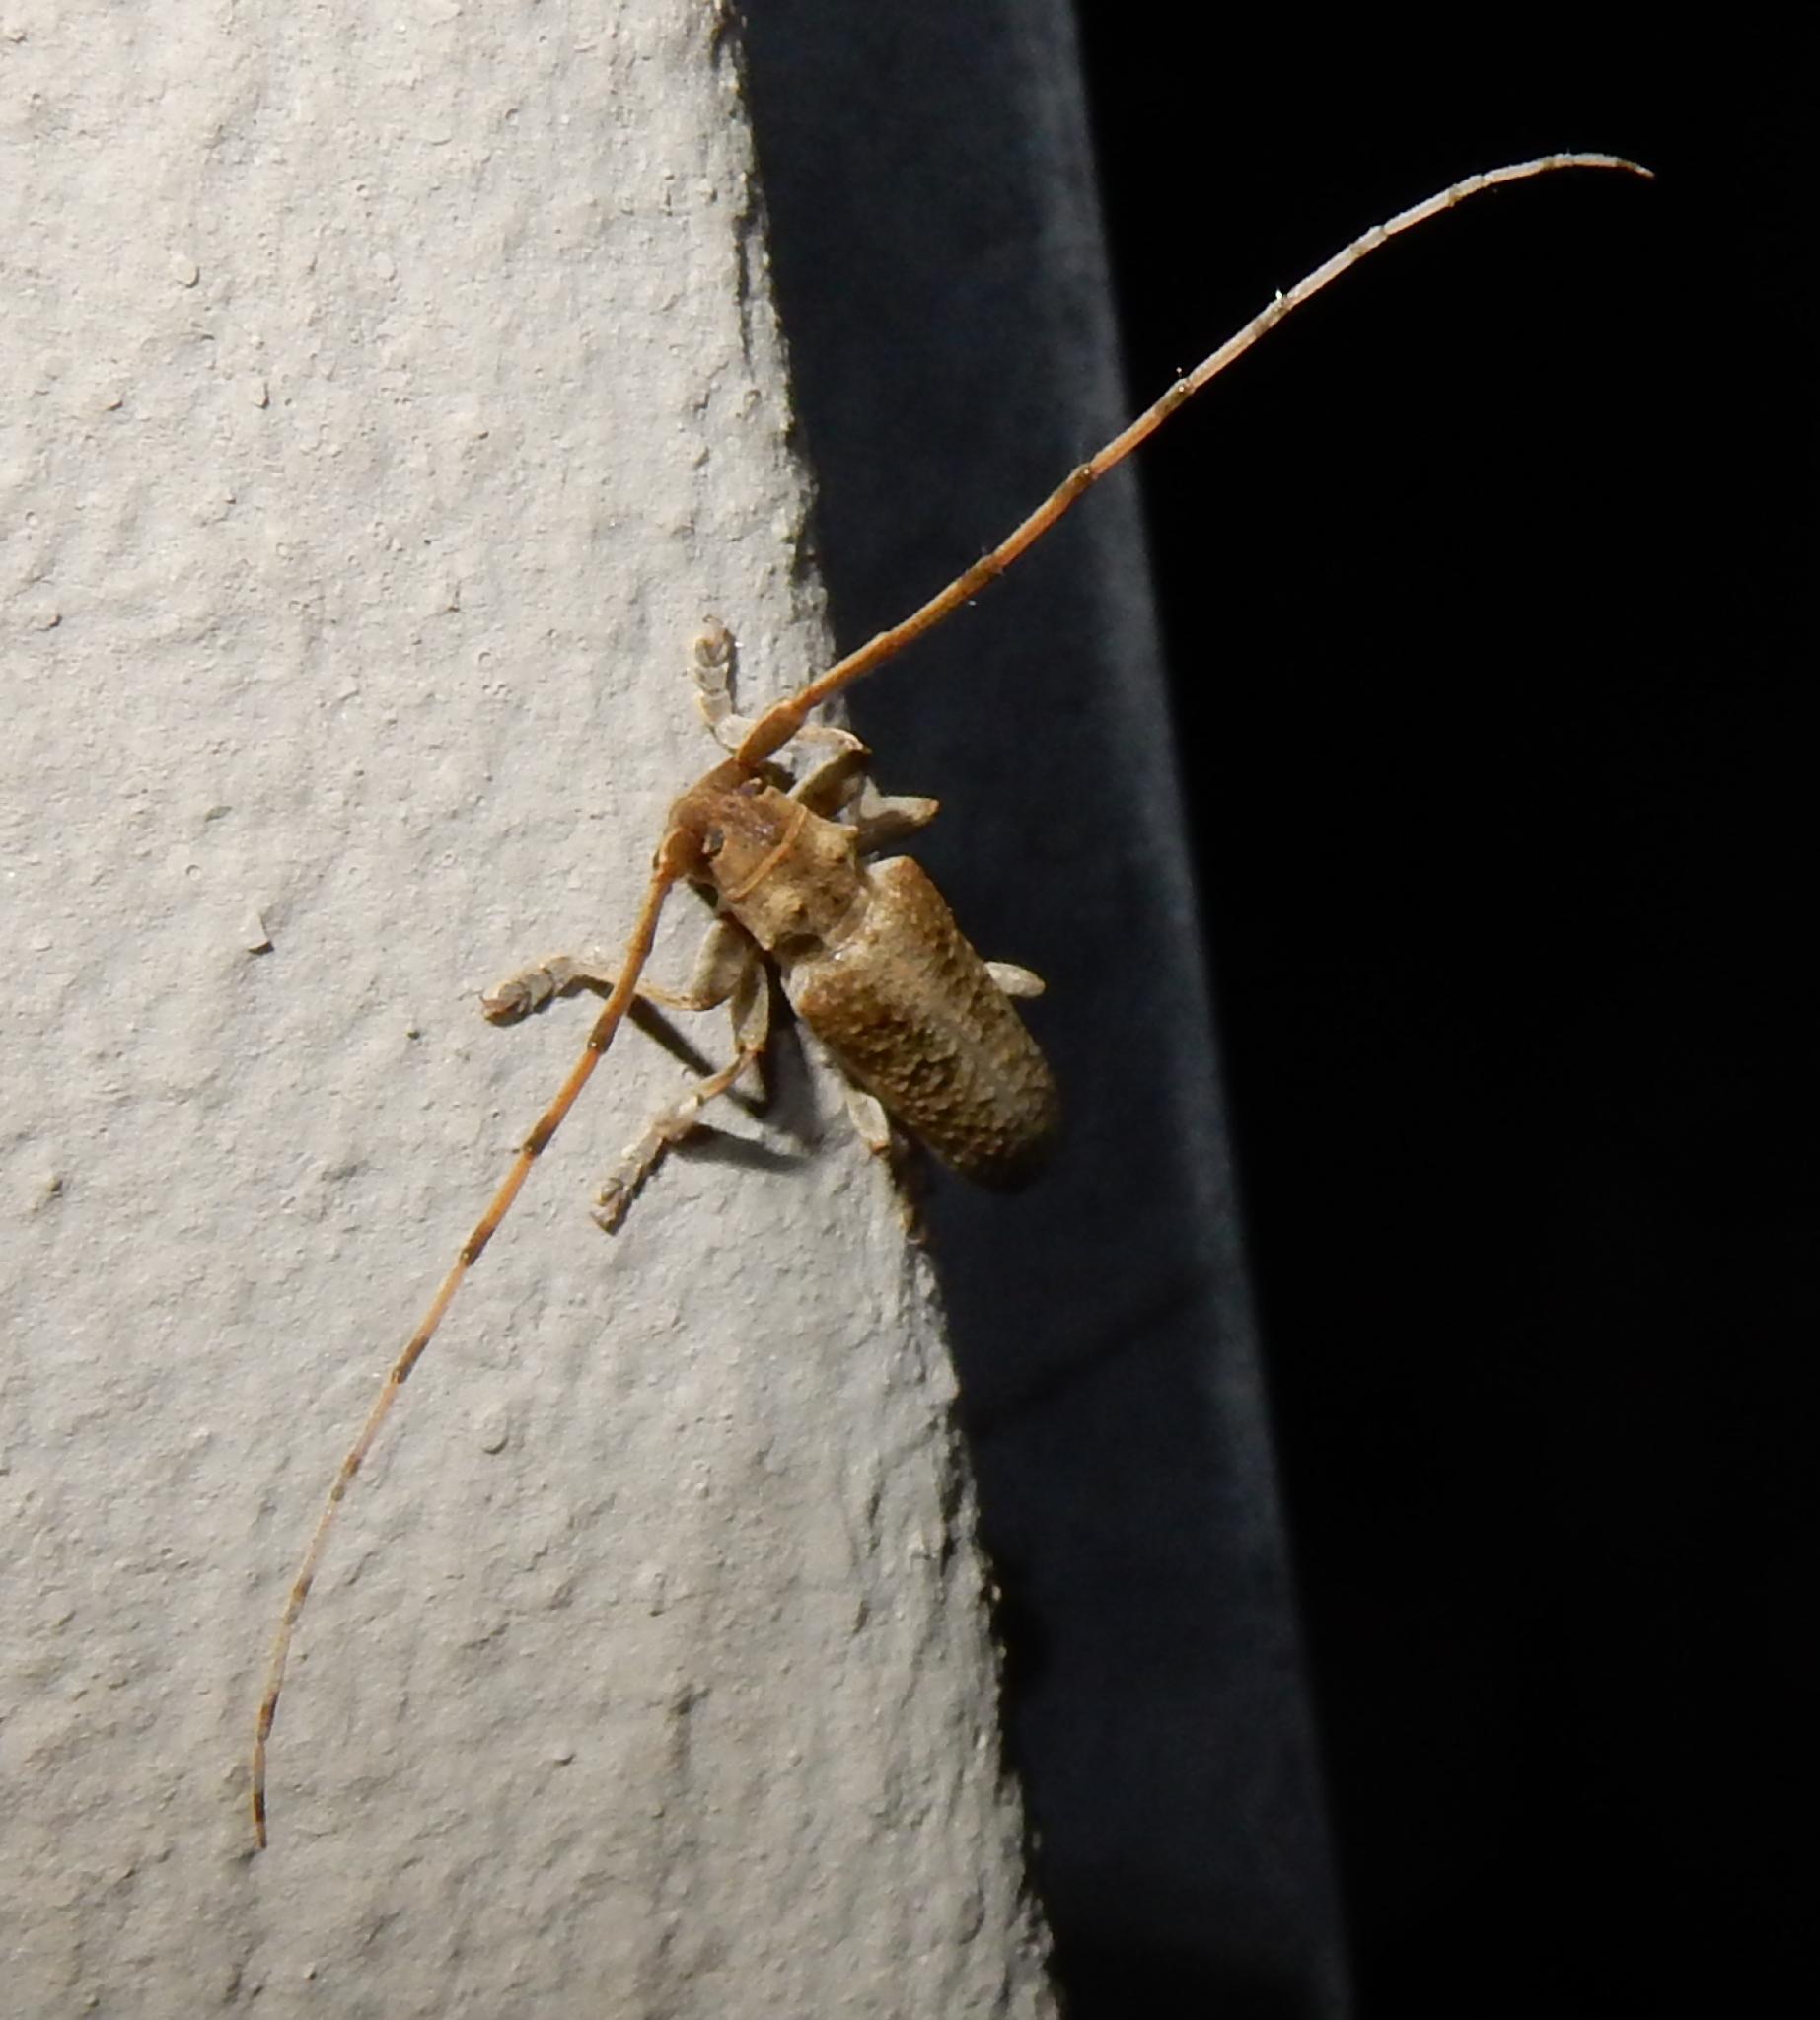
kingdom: Animalia
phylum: Arthropoda
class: Insecta
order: Coleoptera
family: Cerambycidae
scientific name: Cerambycidae
